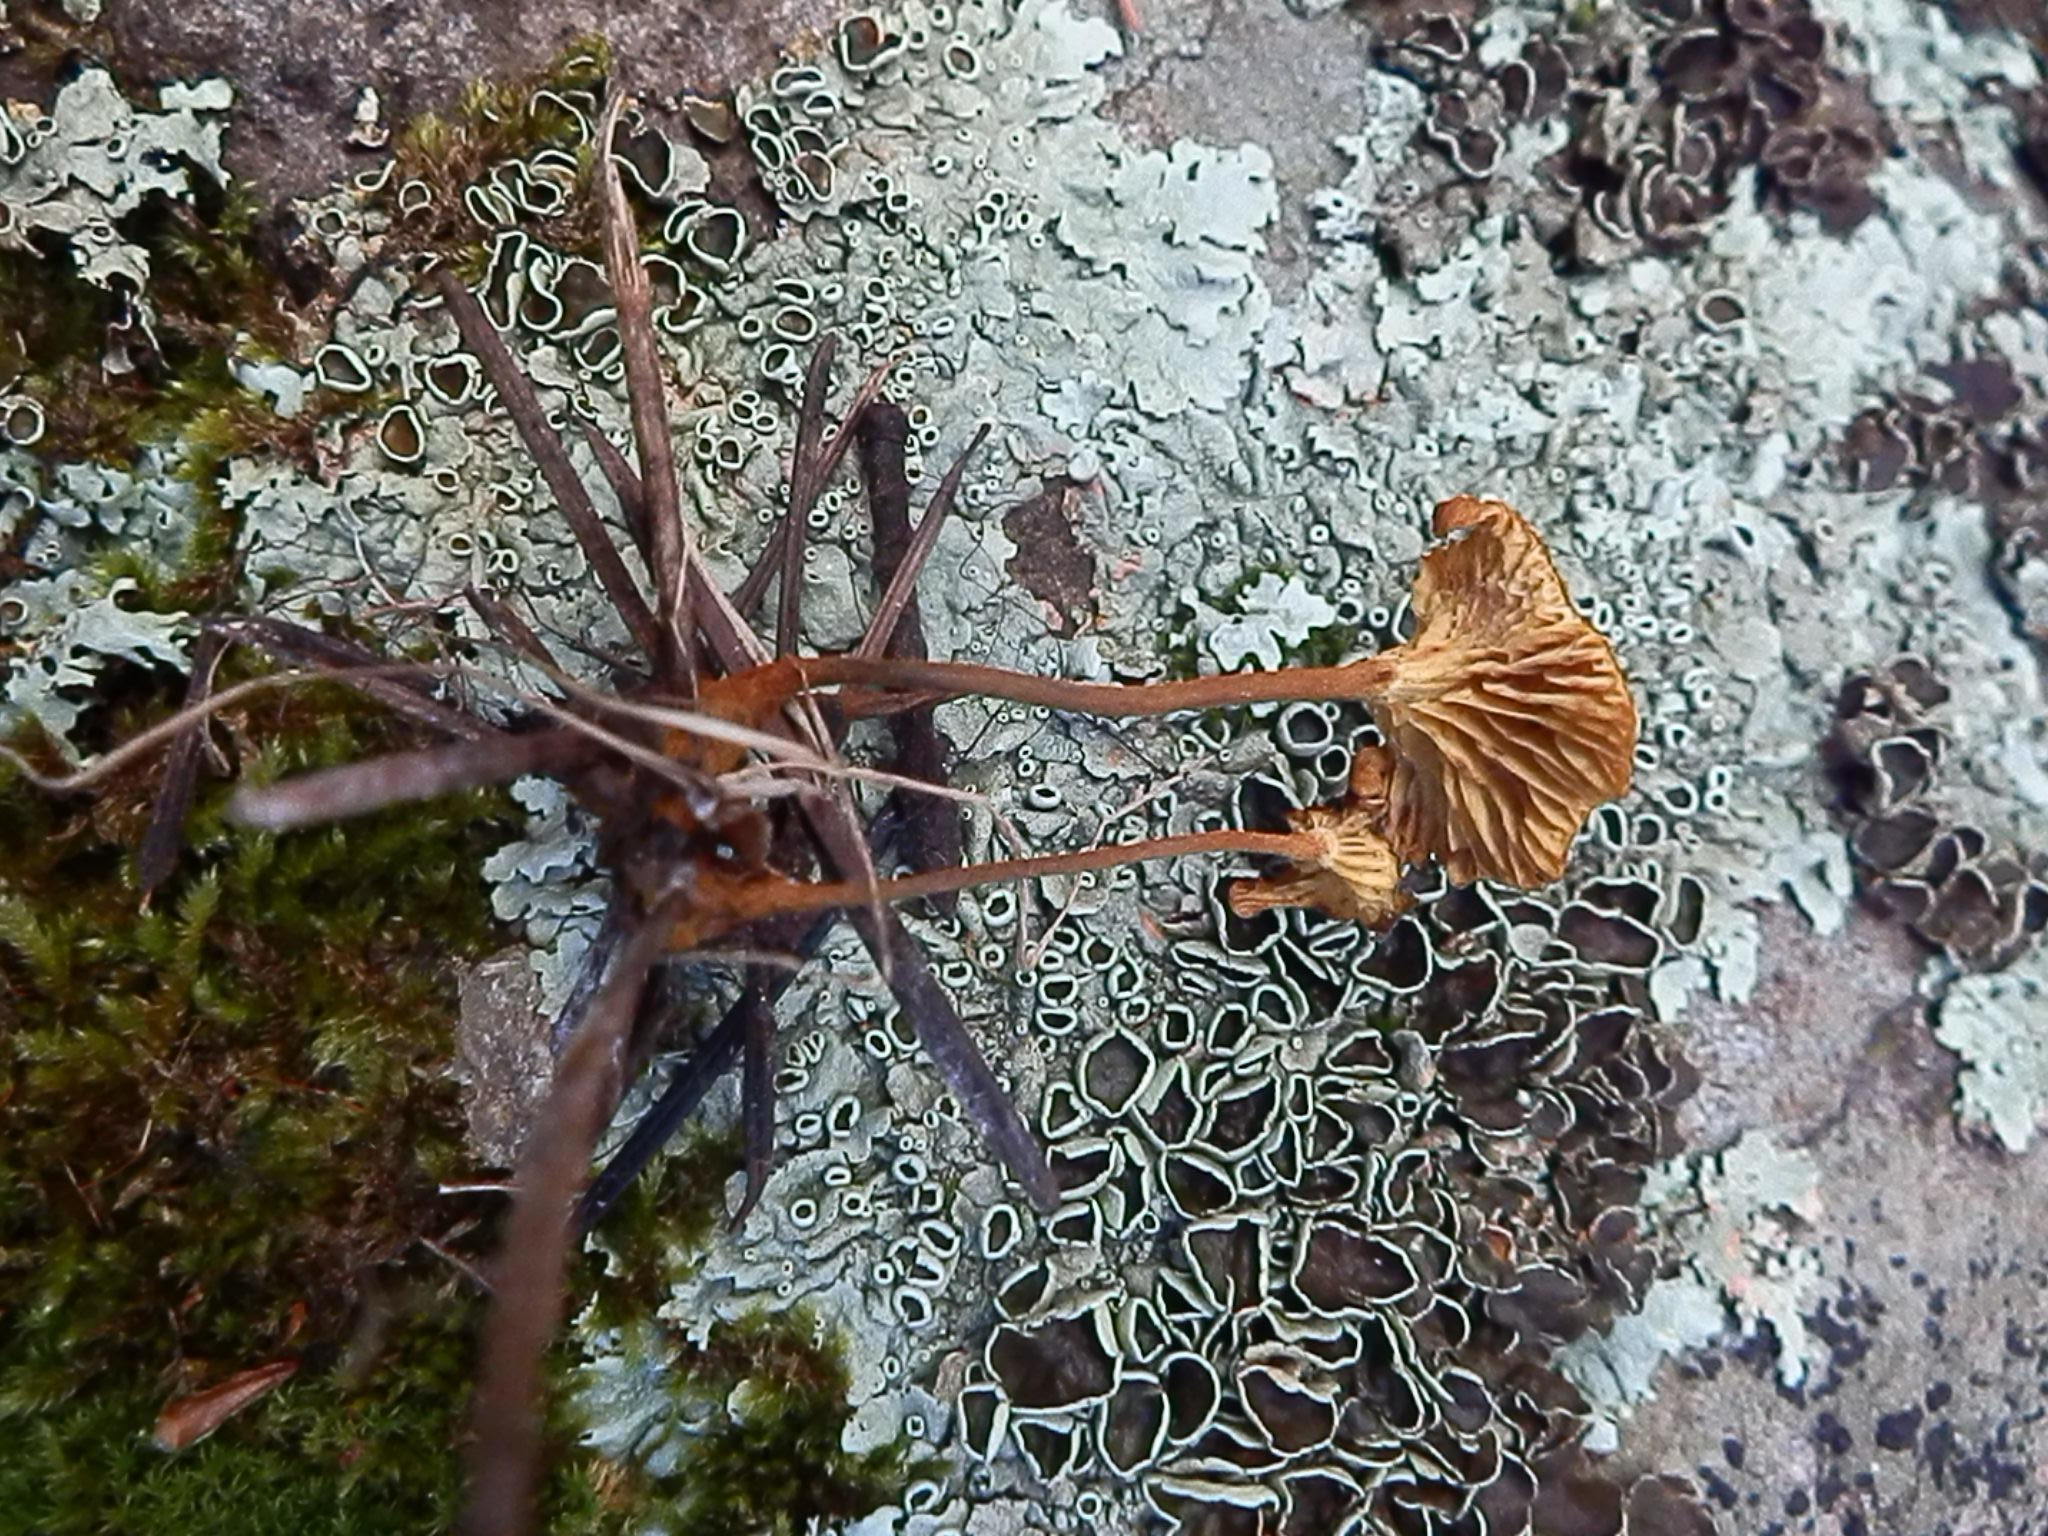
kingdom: Fungi
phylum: Basidiomycota
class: Agaricomycetes
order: Agaricales
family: Mycenaceae
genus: Xeromphalina
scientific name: Xeromphalina cauticinalis
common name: Pinelitter gingertail
